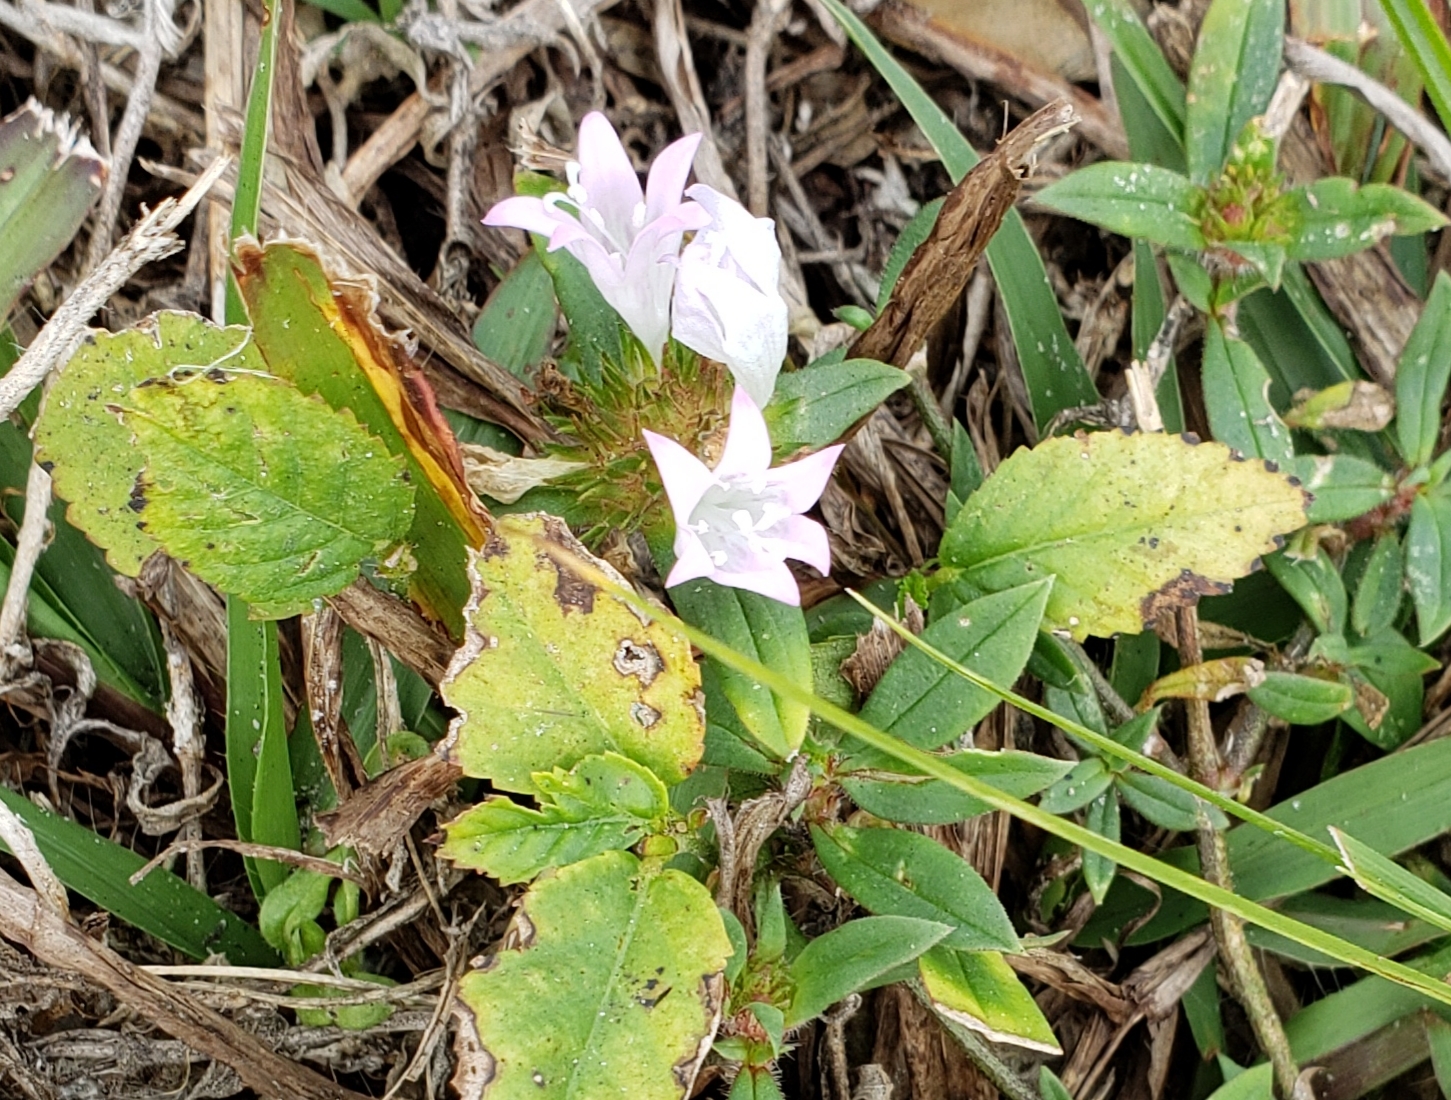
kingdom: Plantae
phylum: Tracheophyta
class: Magnoliopsida
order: Gentianales
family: Rubiaceae
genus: Richardia
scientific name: Richardia grandiflora
